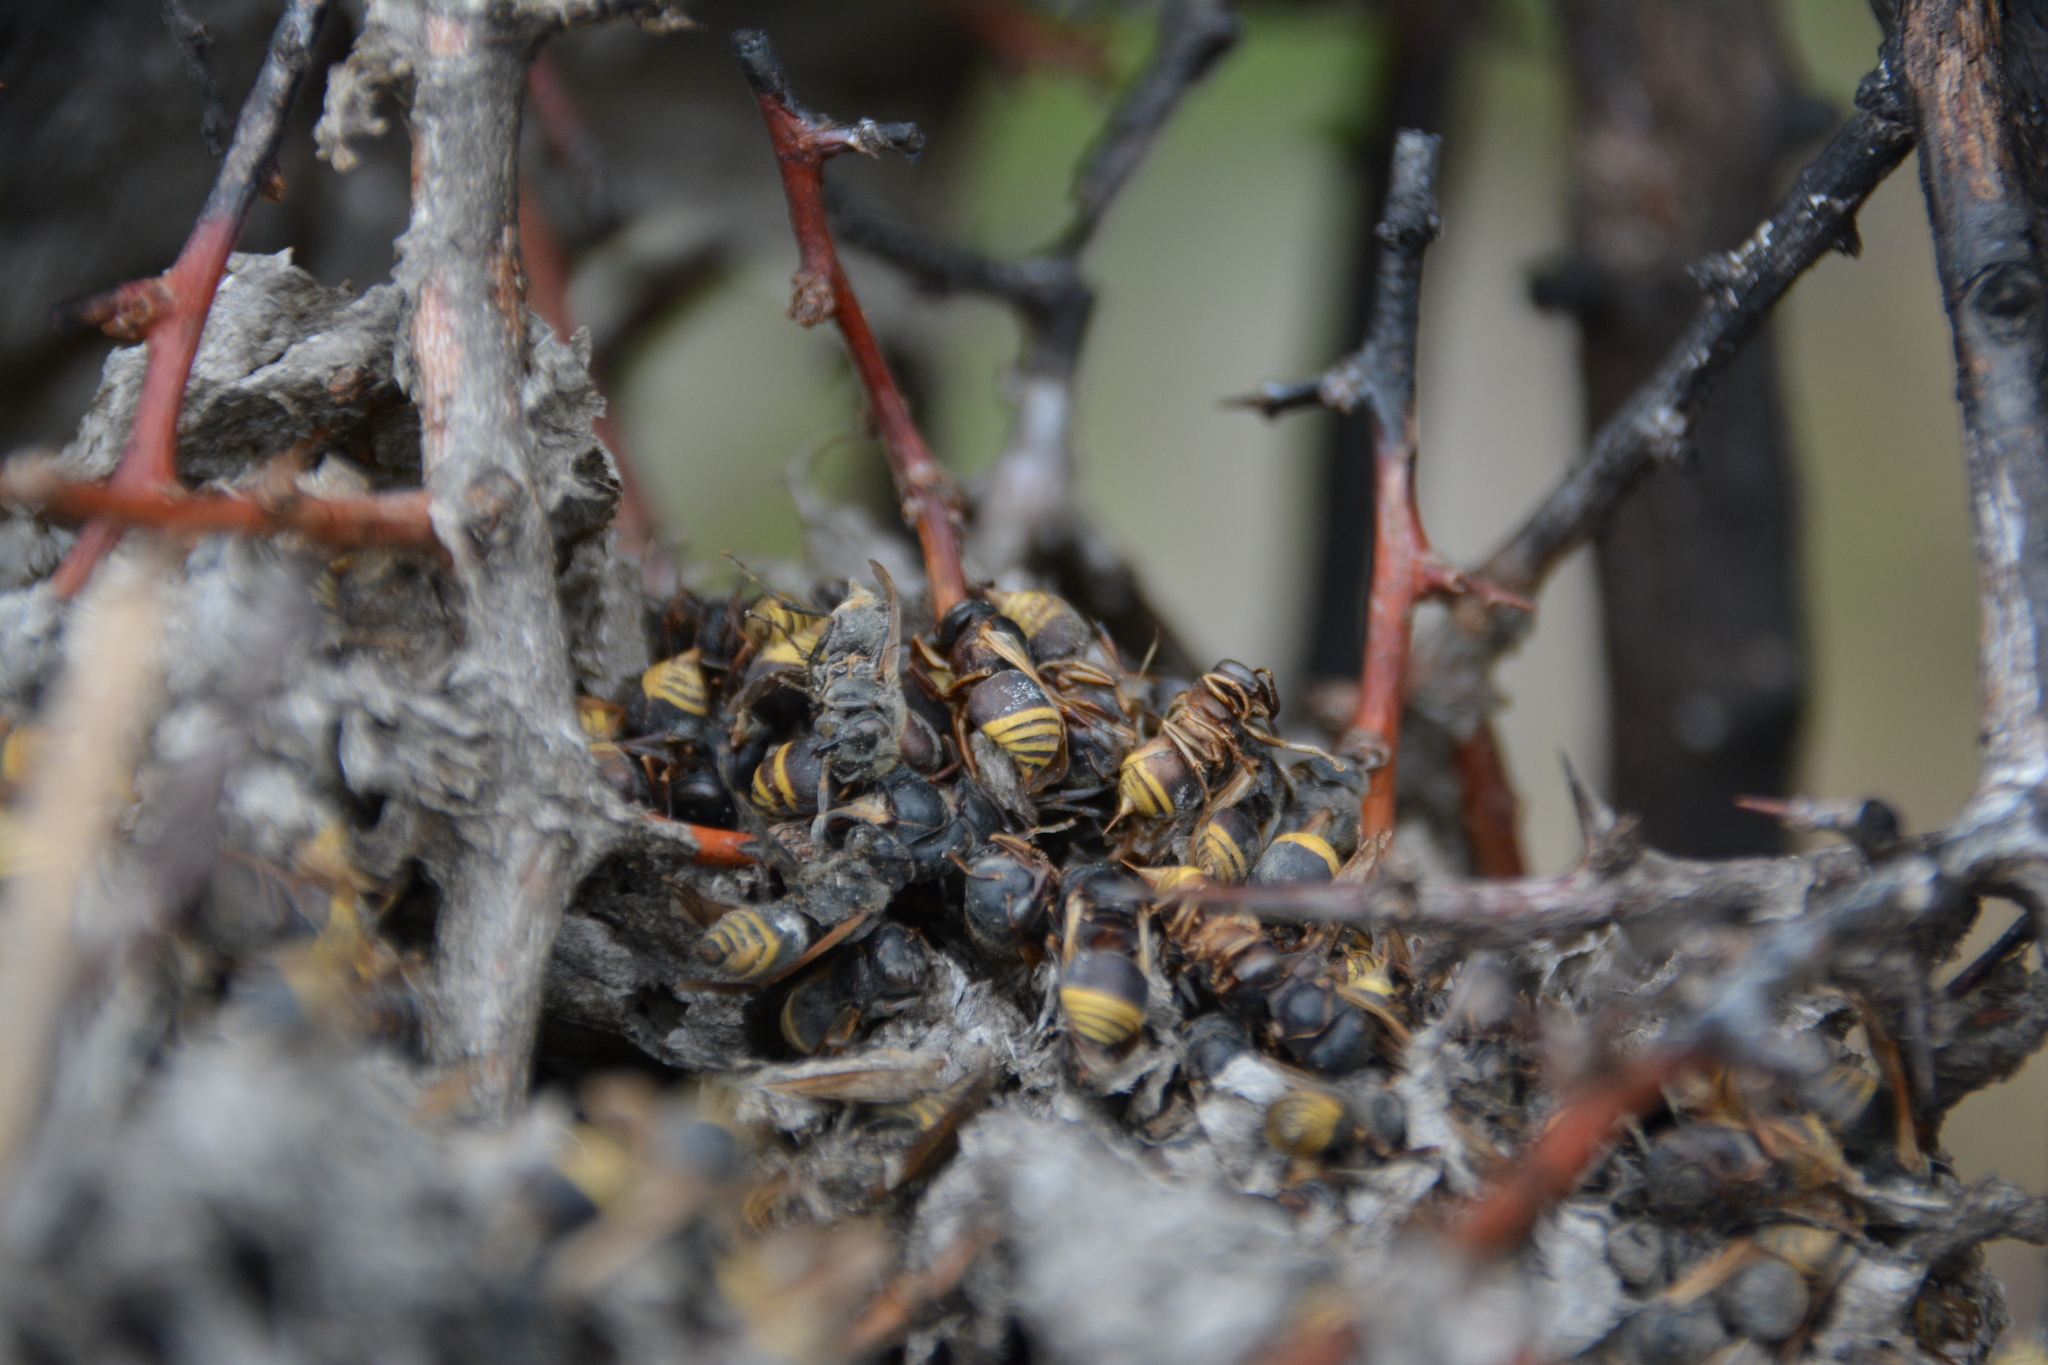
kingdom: Animalia
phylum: Arthropoda
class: Insecta
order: Hymenoptera
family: Vespidae
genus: Brachygastra
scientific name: Brachygastra lecheguana
